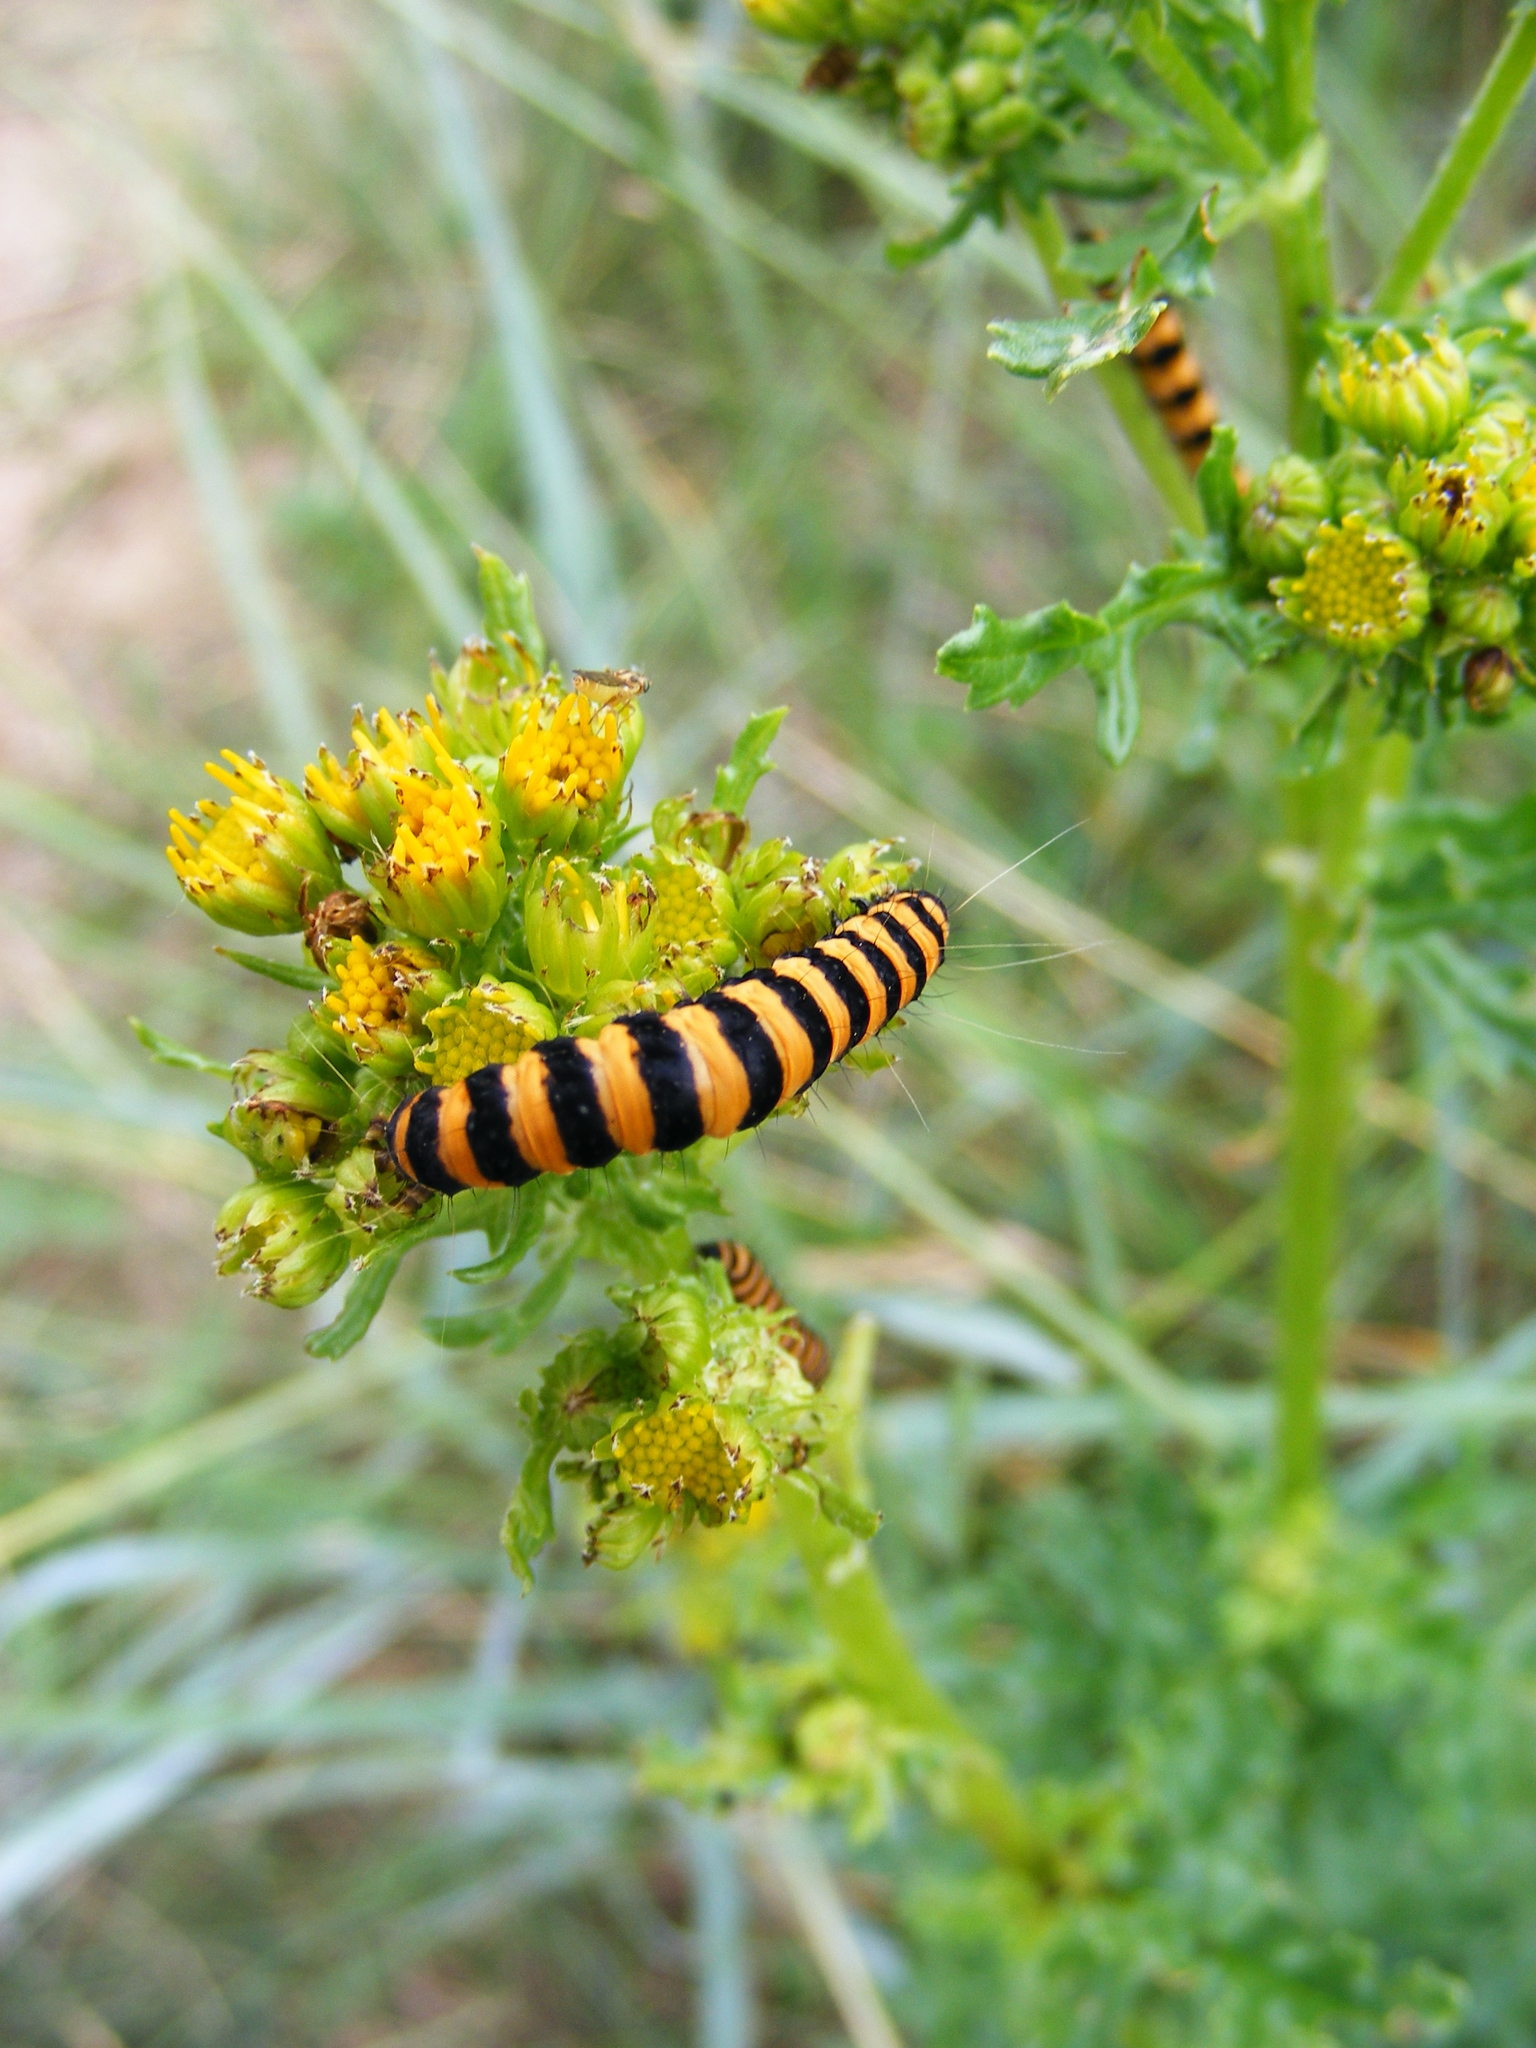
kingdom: Animalia
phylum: Arthropoda
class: Insecta
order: Lepidoptera
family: Erebidae
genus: Tyria
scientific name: Tyria jacobaeae
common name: Cinnabar
